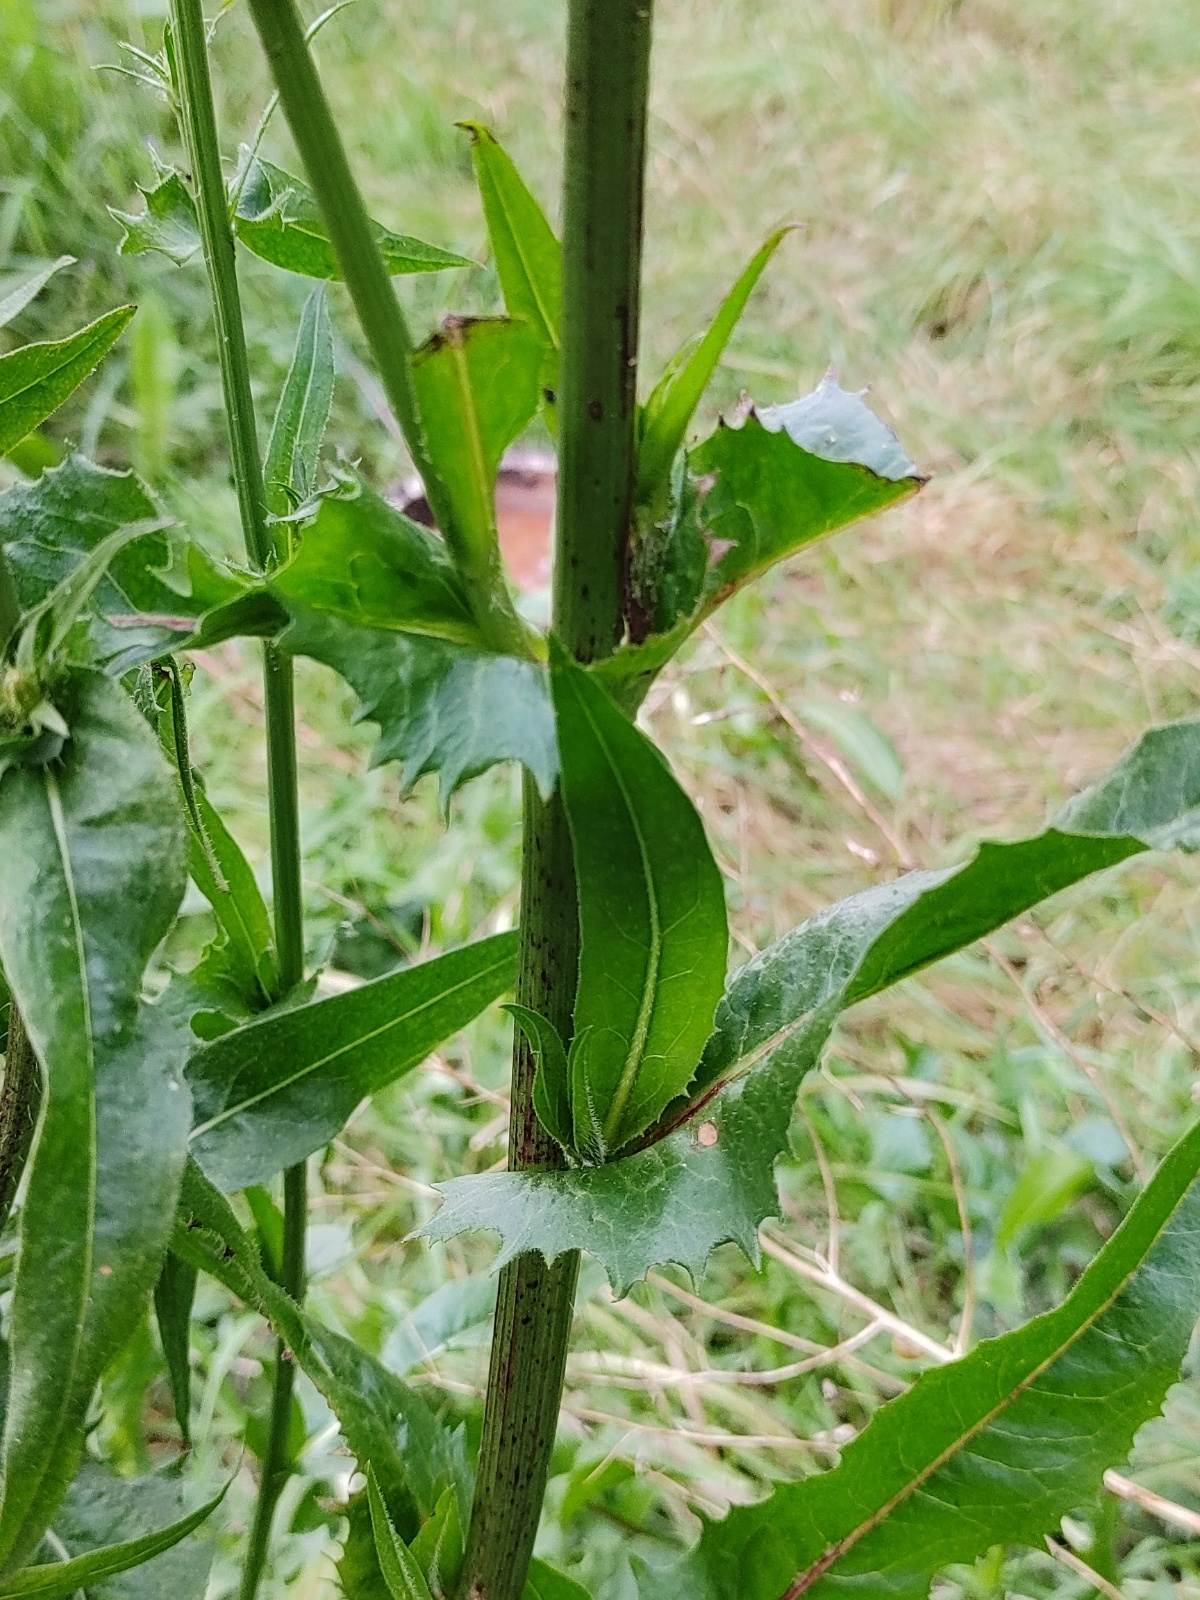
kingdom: Plantae
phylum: Tracheophyta
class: Magnoliopsida
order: Asterales
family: Asteraceae
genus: Cichorium
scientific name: Cichorium intybus
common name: Chicory
